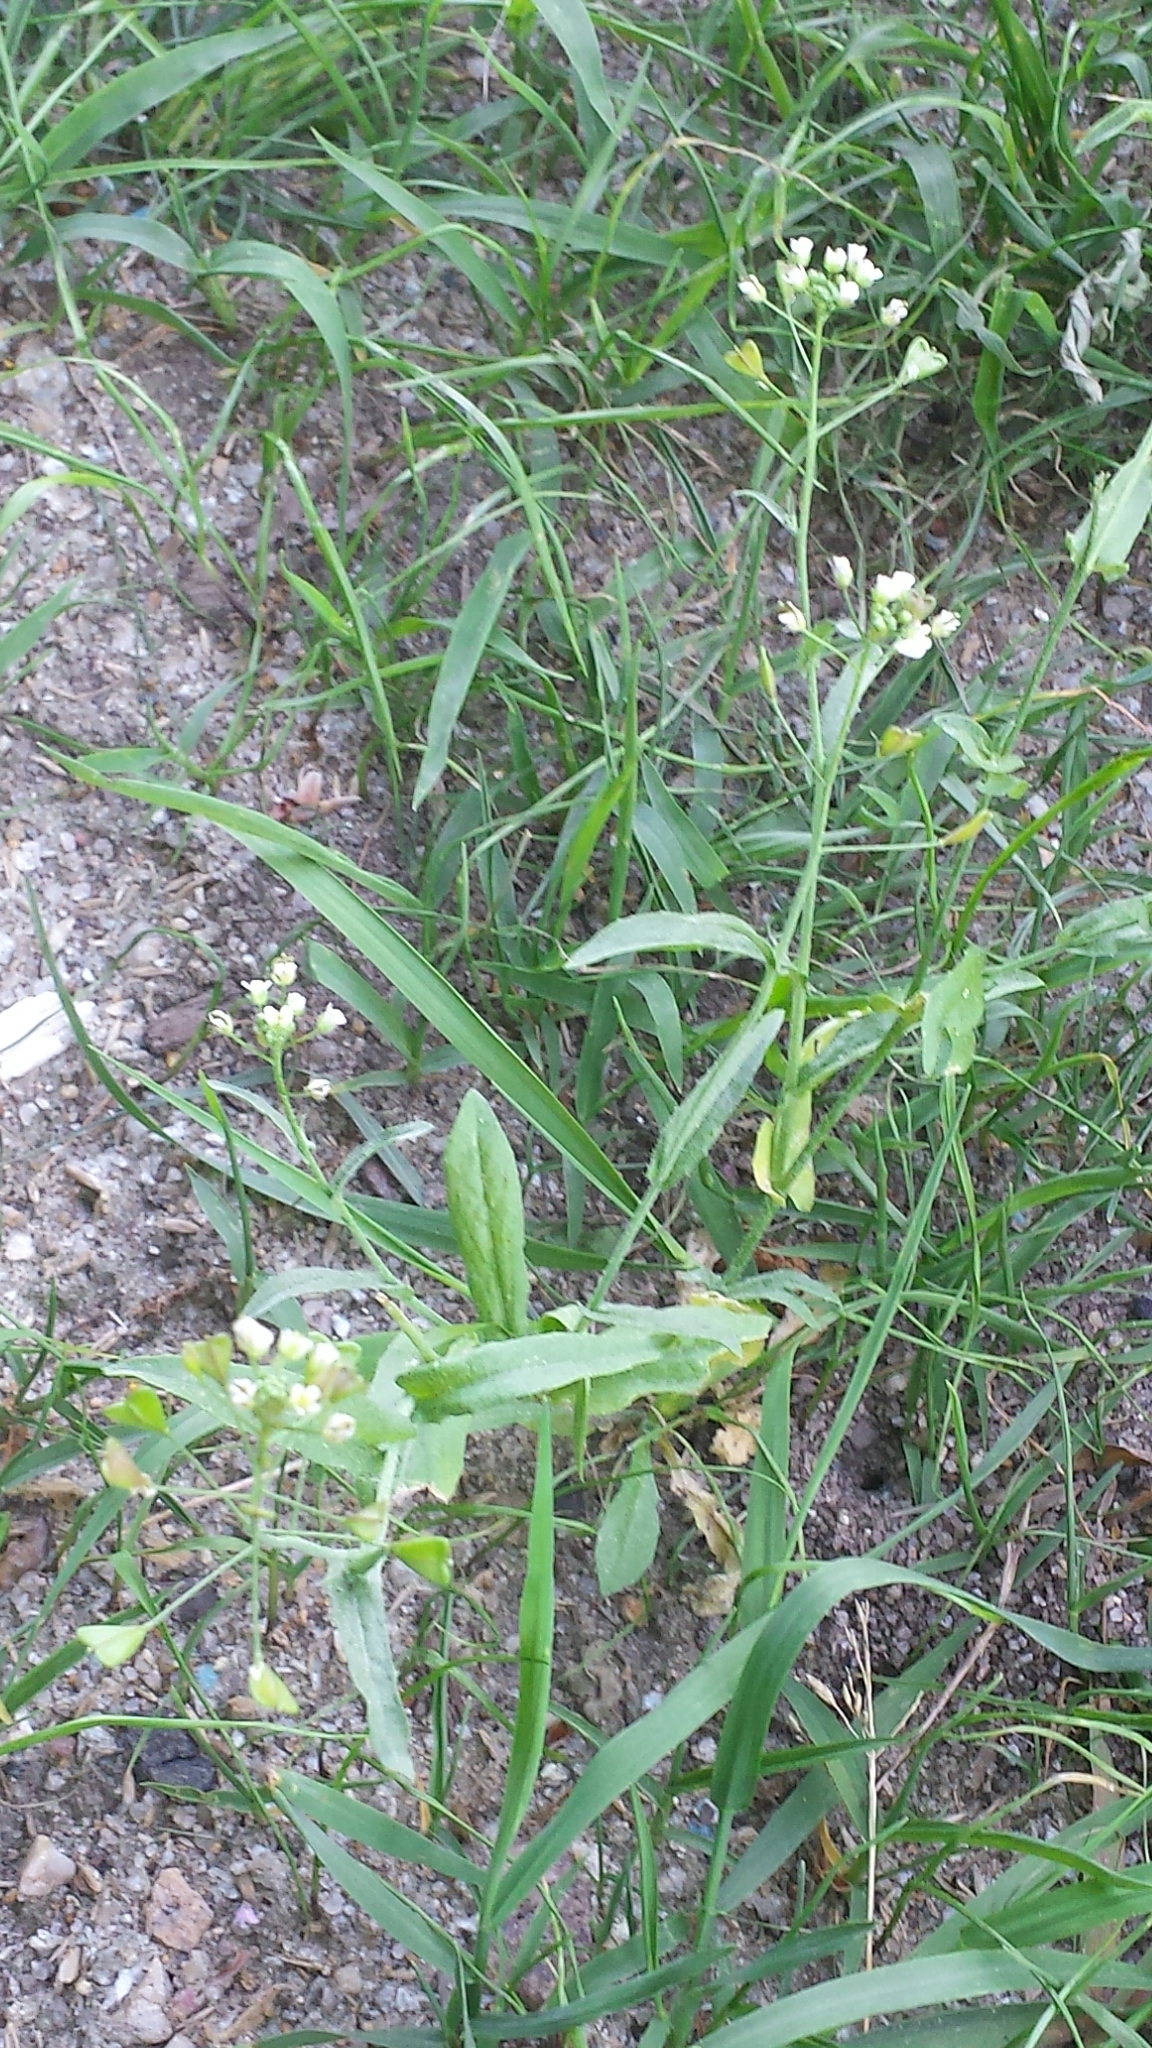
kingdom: Plantae
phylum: Tracheophyta
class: Magnoliopsida
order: Brassicales
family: Brassicaceae
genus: Capsella
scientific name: Capsella bursa-pastoris
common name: Shepherd's purse
